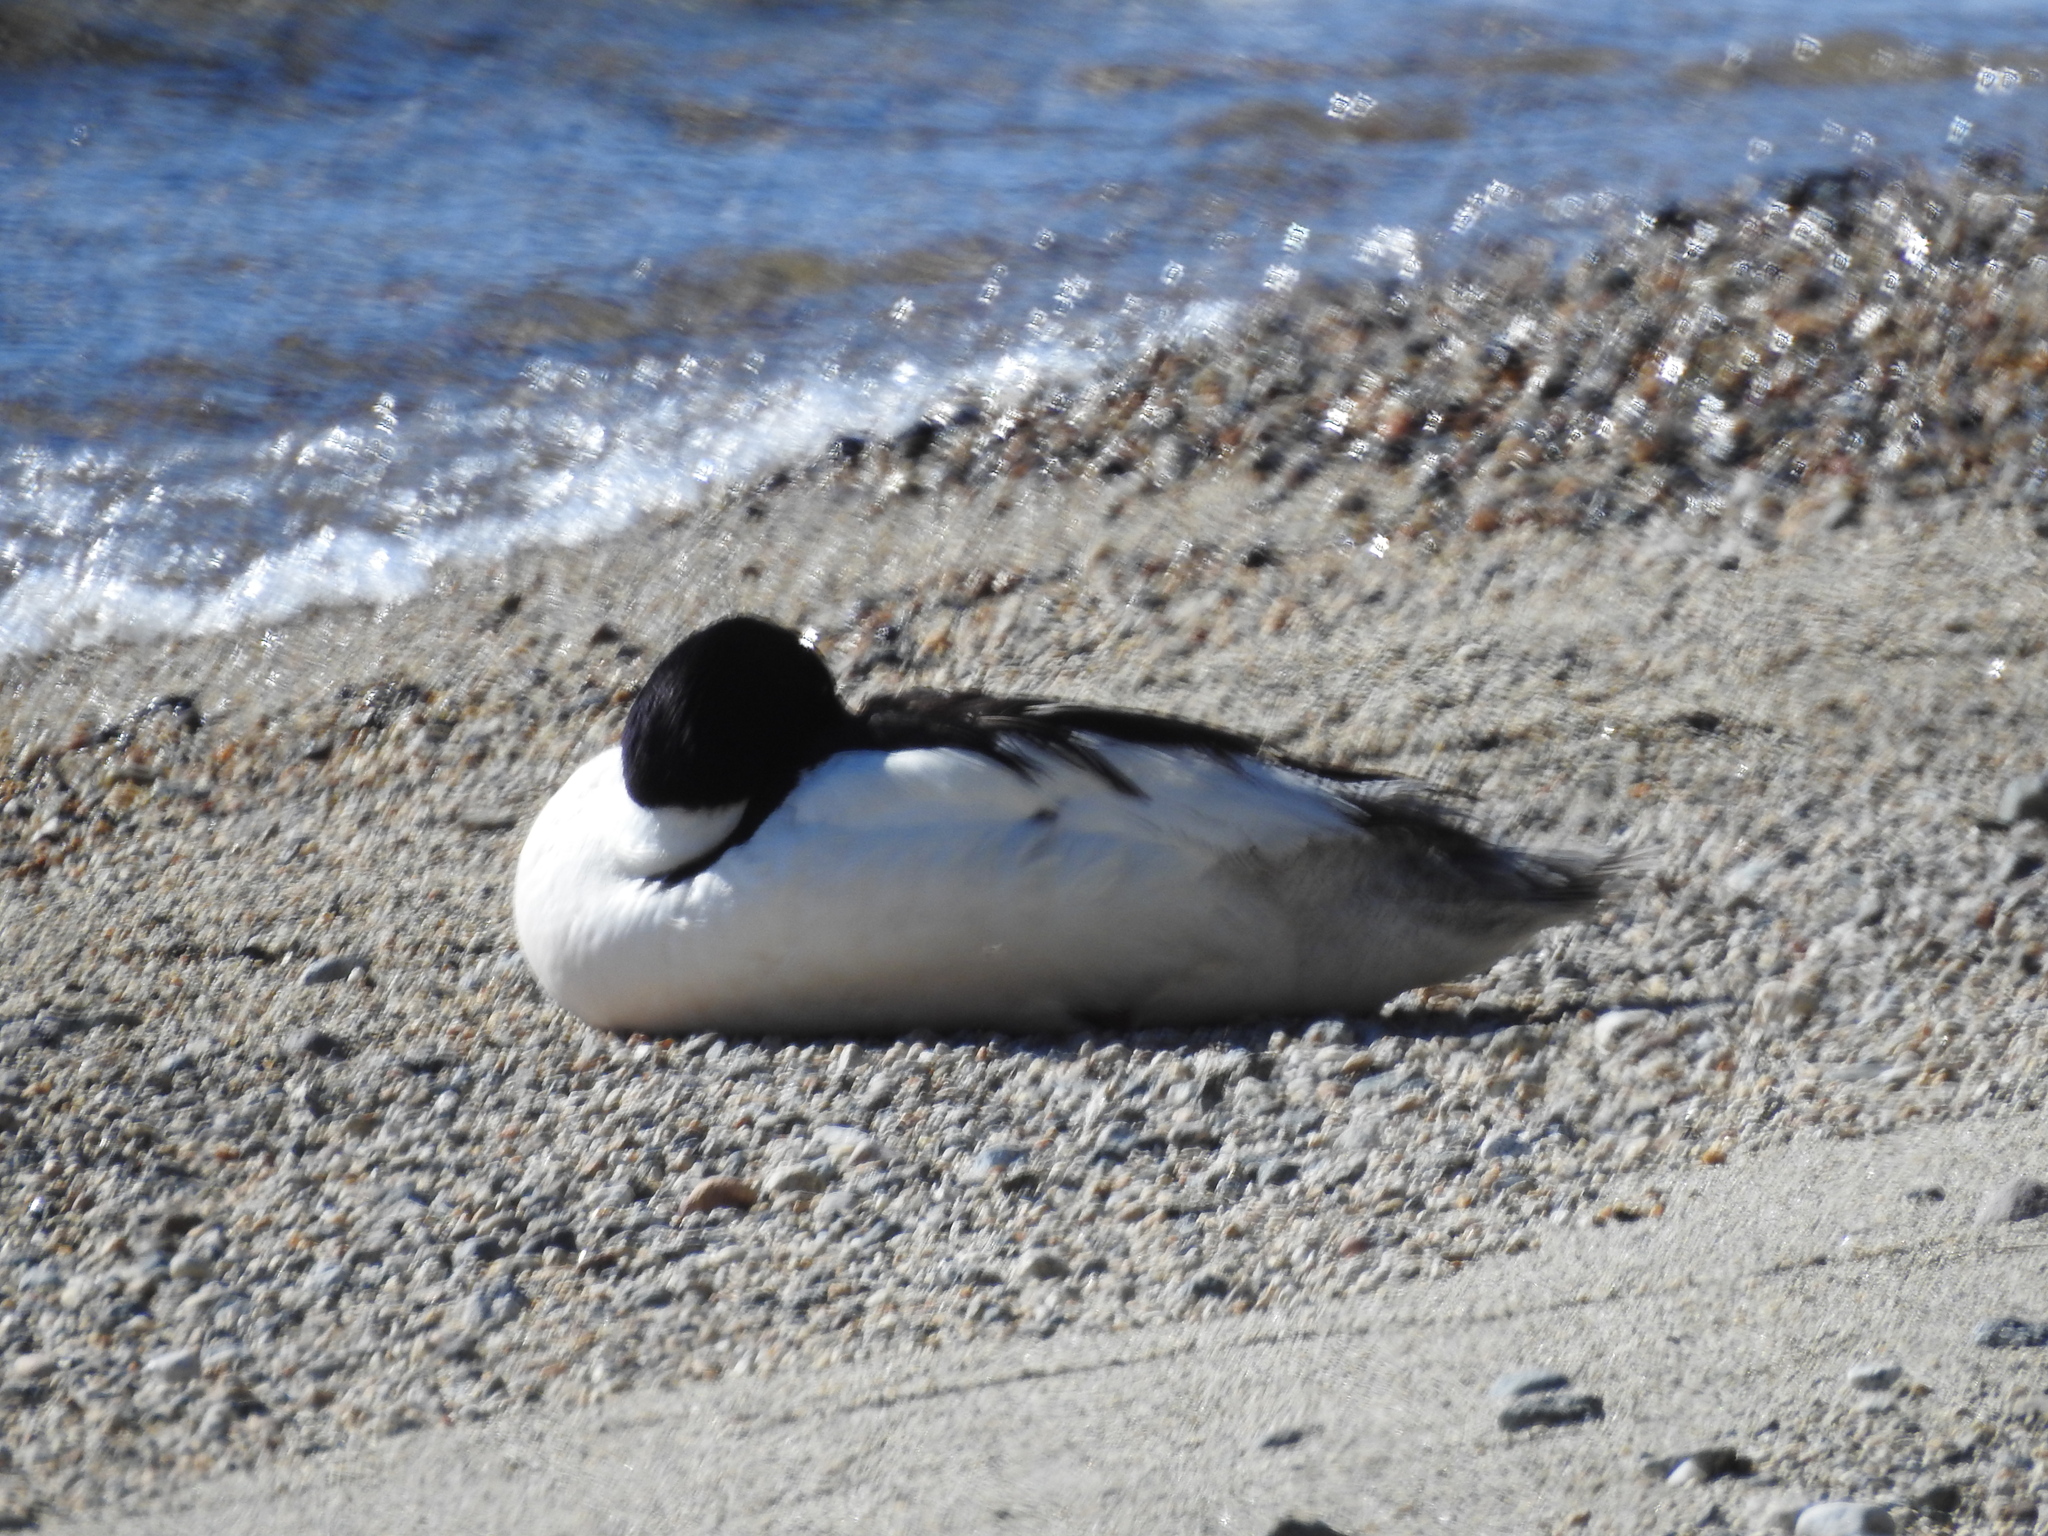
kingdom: Animalia
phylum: Chordata
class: Aves
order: Anseriformes
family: Anatidae
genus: Mergus
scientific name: Mergus merganser
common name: Common merganser
